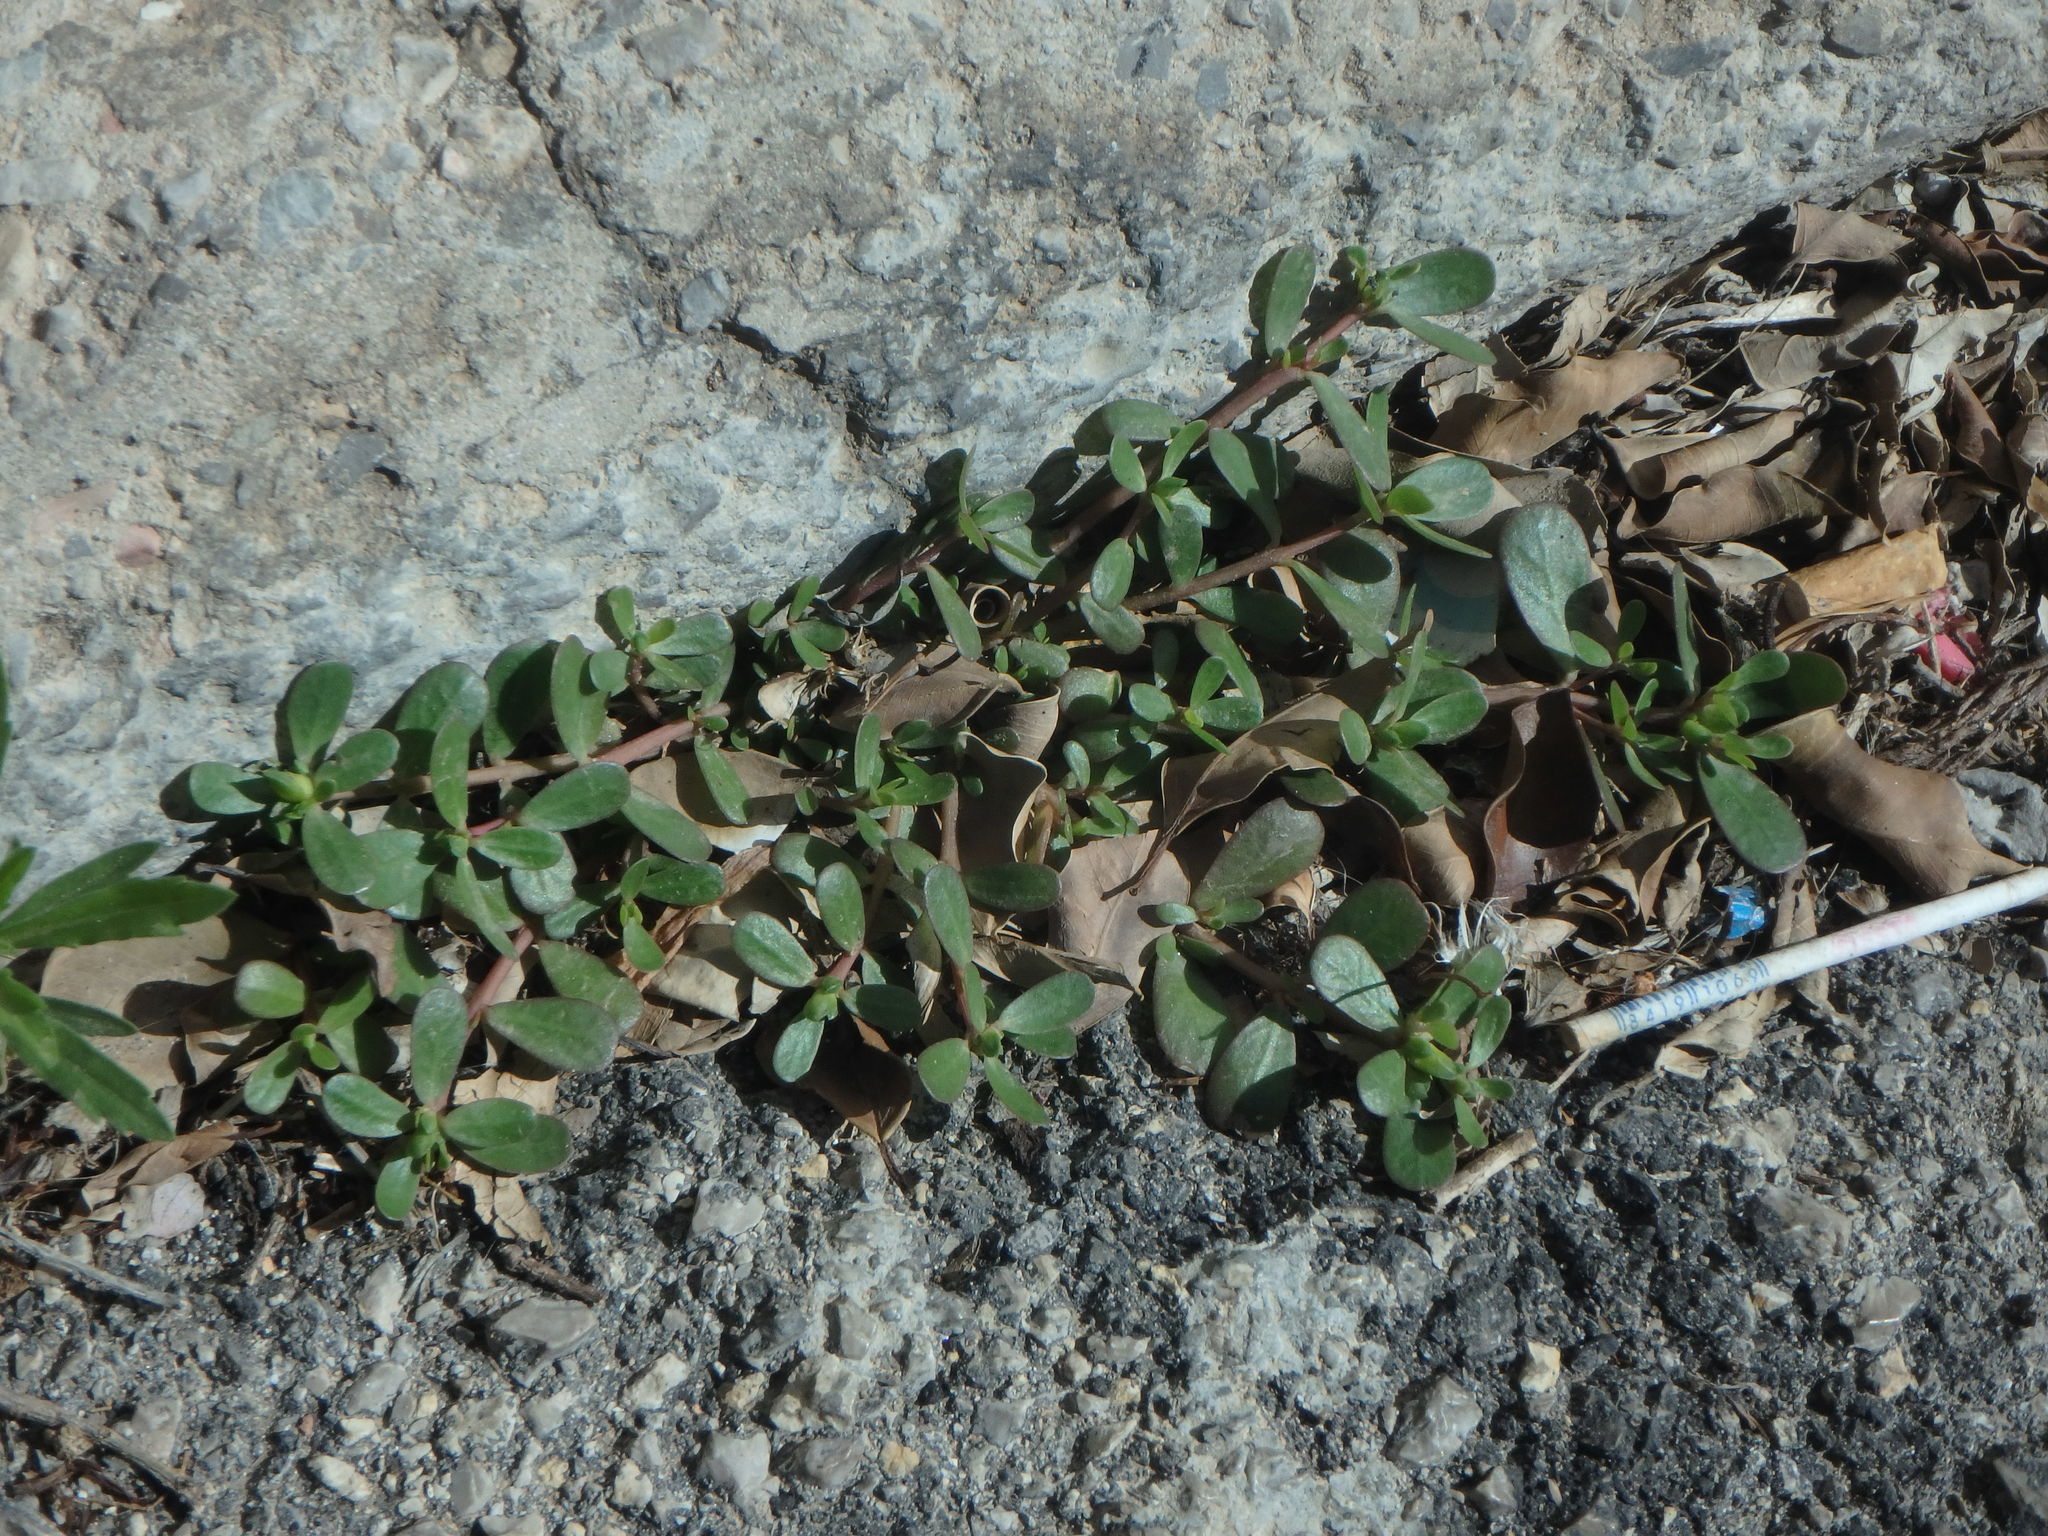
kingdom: Plantae
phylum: Tracheophyta
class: Magnoliopsida
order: Caryophyllales
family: Portulacaceae
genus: Portulaca
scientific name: Portulaca oleracea
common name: Common purslane
